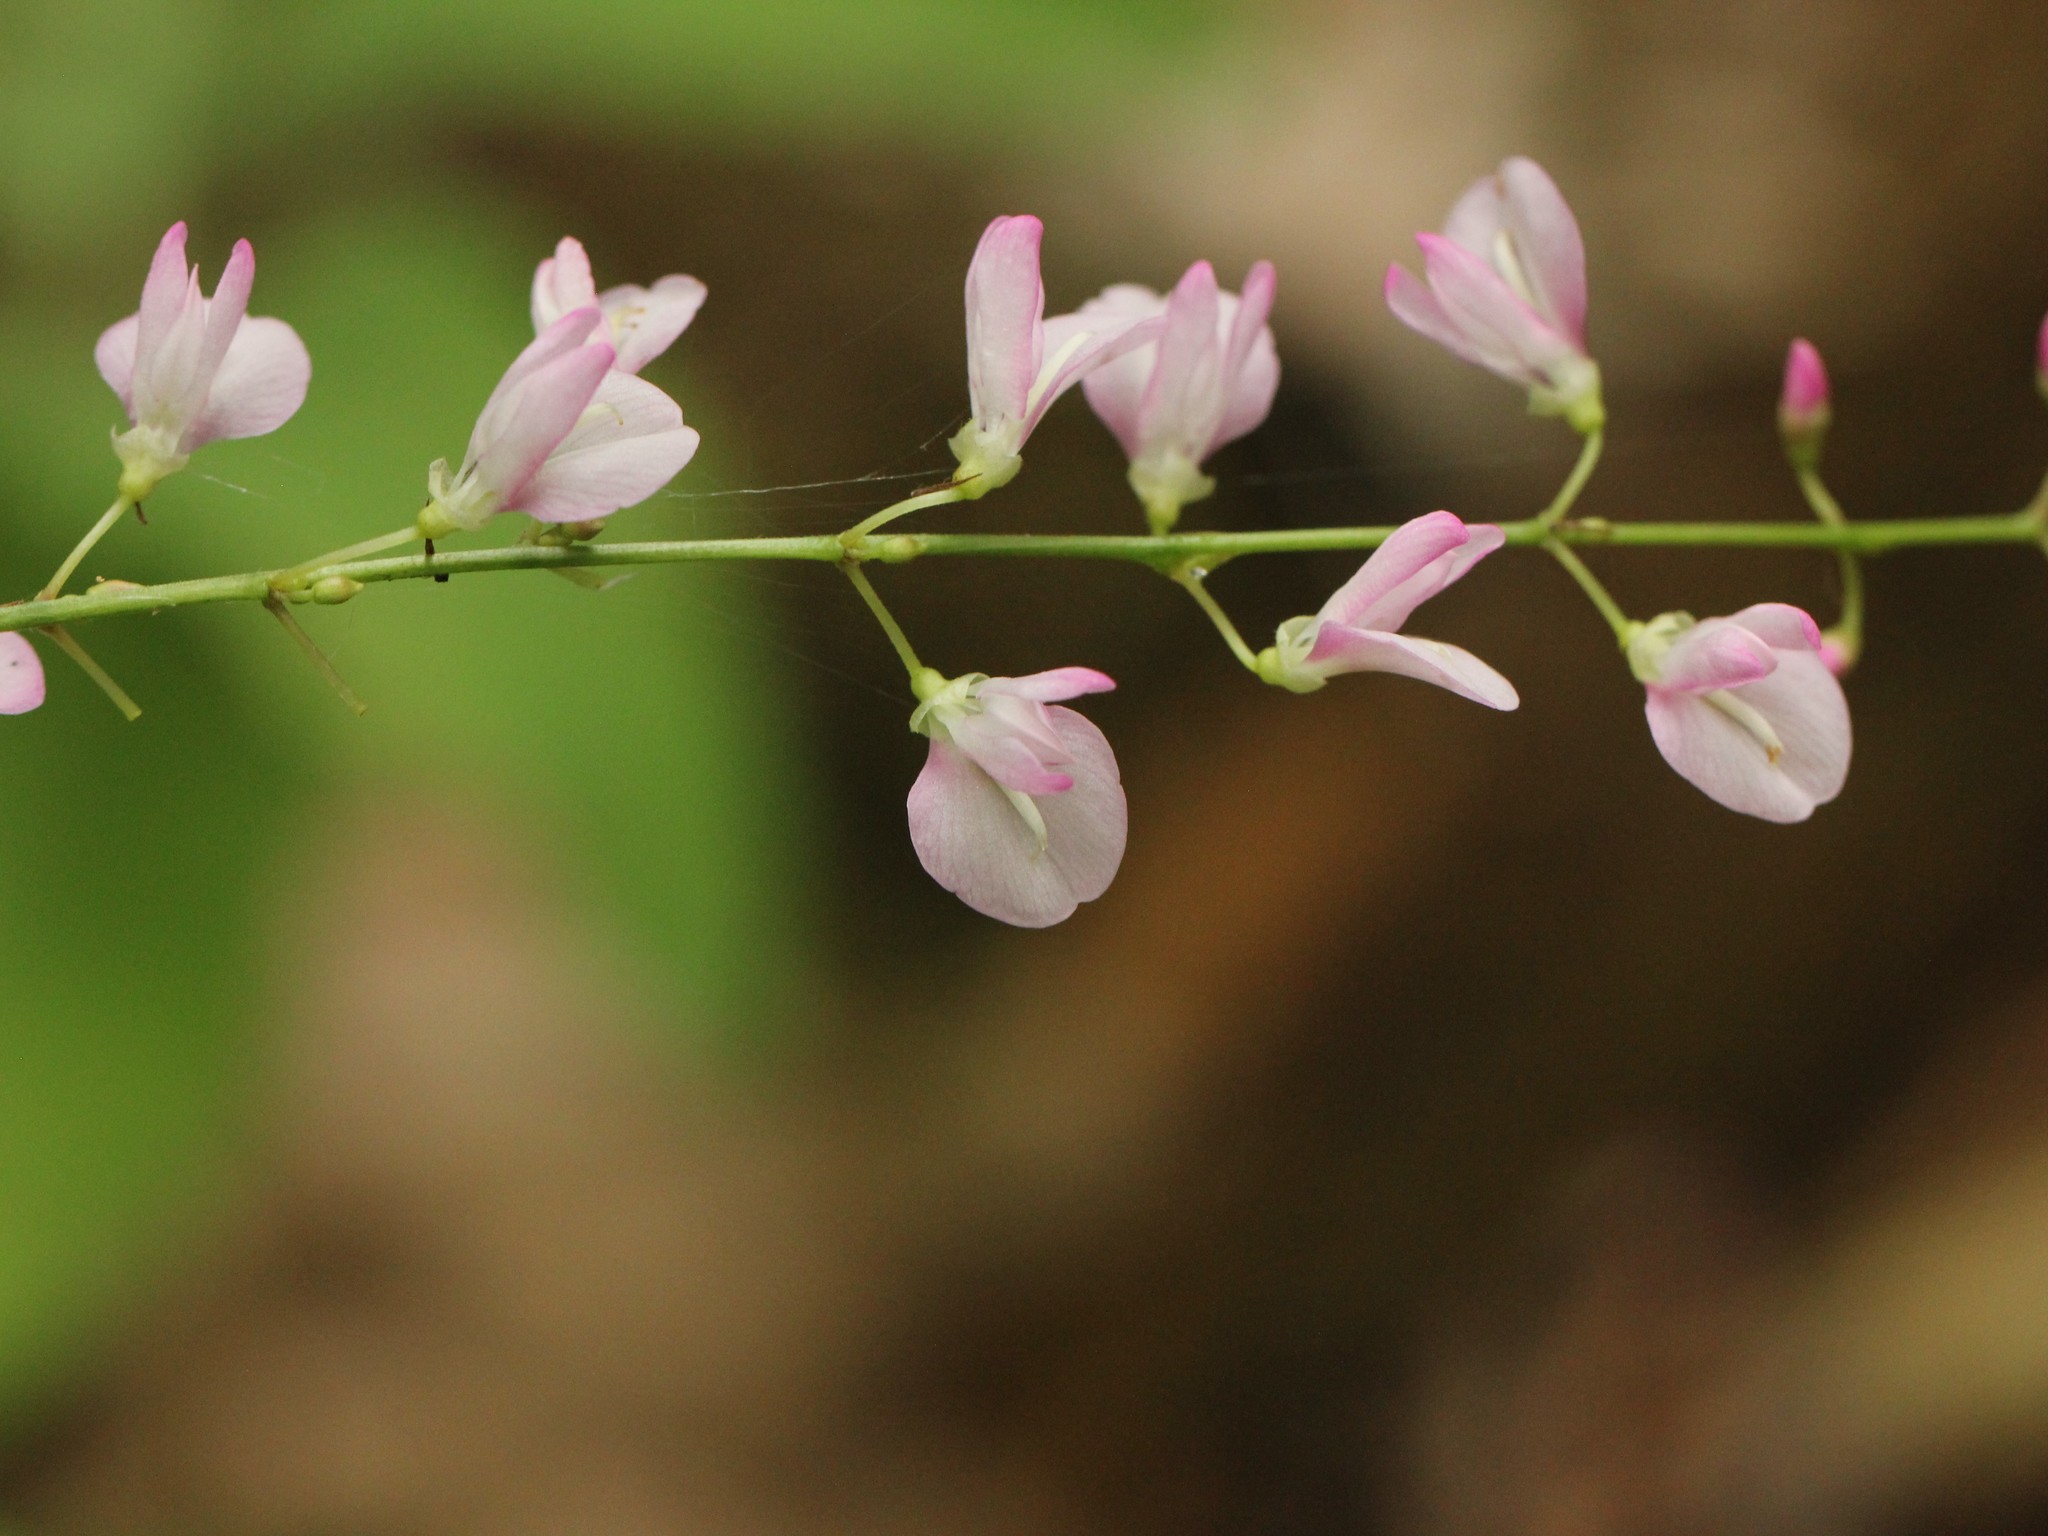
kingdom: Plantae
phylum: Tracheophyta
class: Magnoliopsida
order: Fabales
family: Fabaceae
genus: Hylodesmum
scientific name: Hylodesmum glutinosum
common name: Clustered-leaved tick-trefoil
